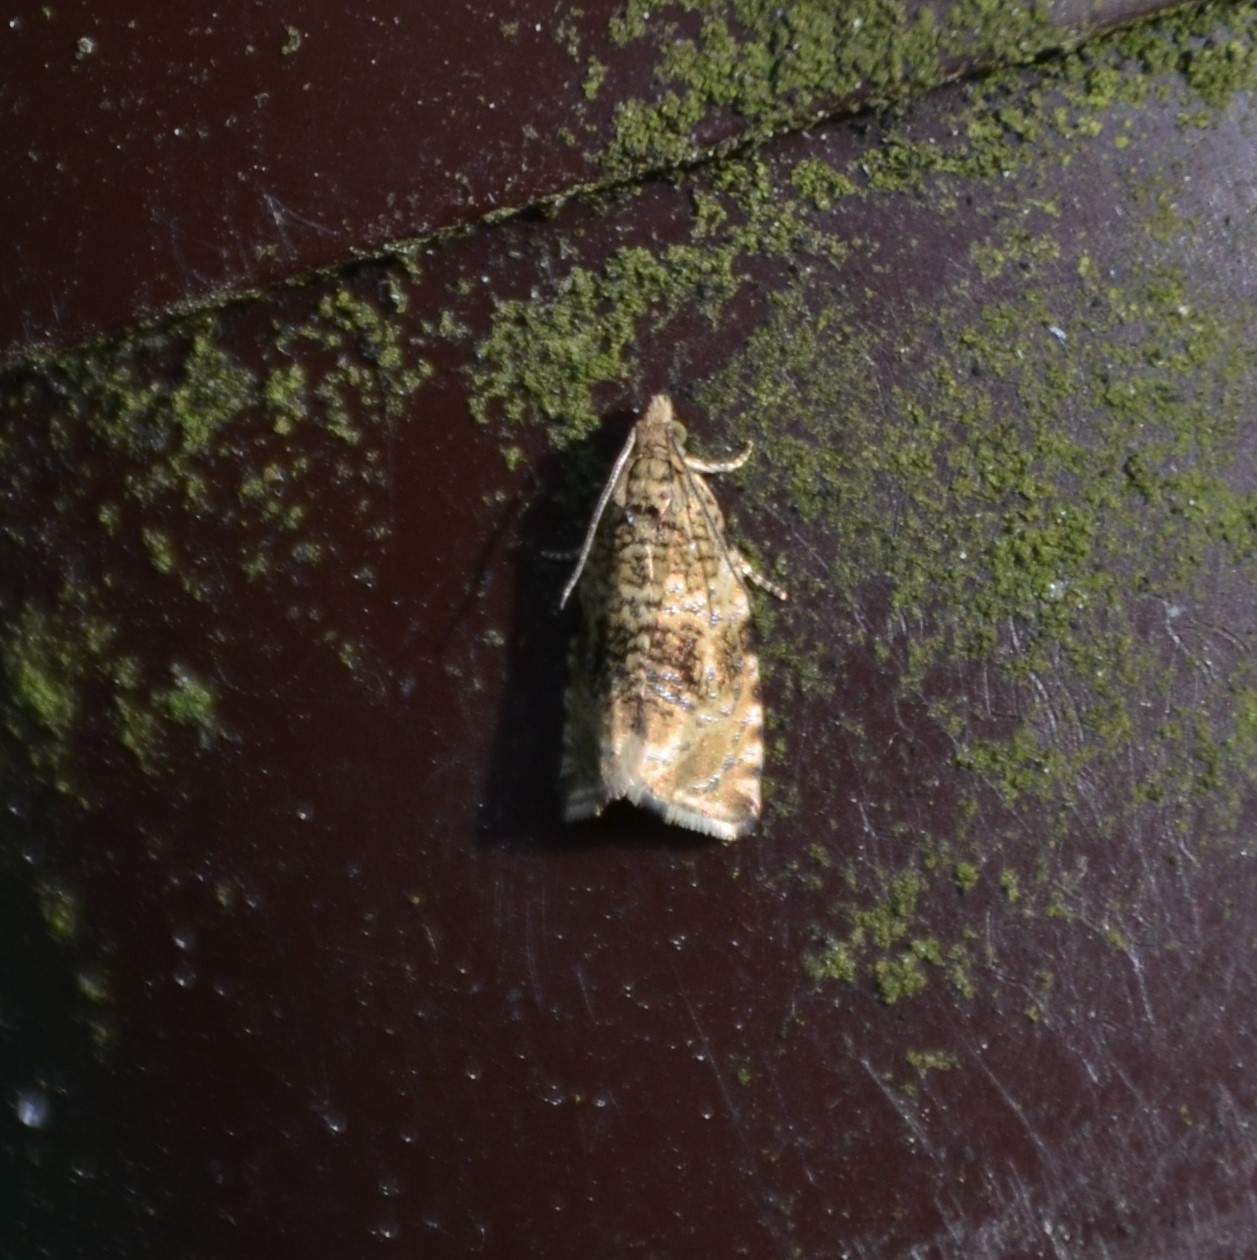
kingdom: Animalia
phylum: Arthropoda
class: Insecta
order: Lepidoptera
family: Tortricidae
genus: Syricoris
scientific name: Syricoris lacunana
